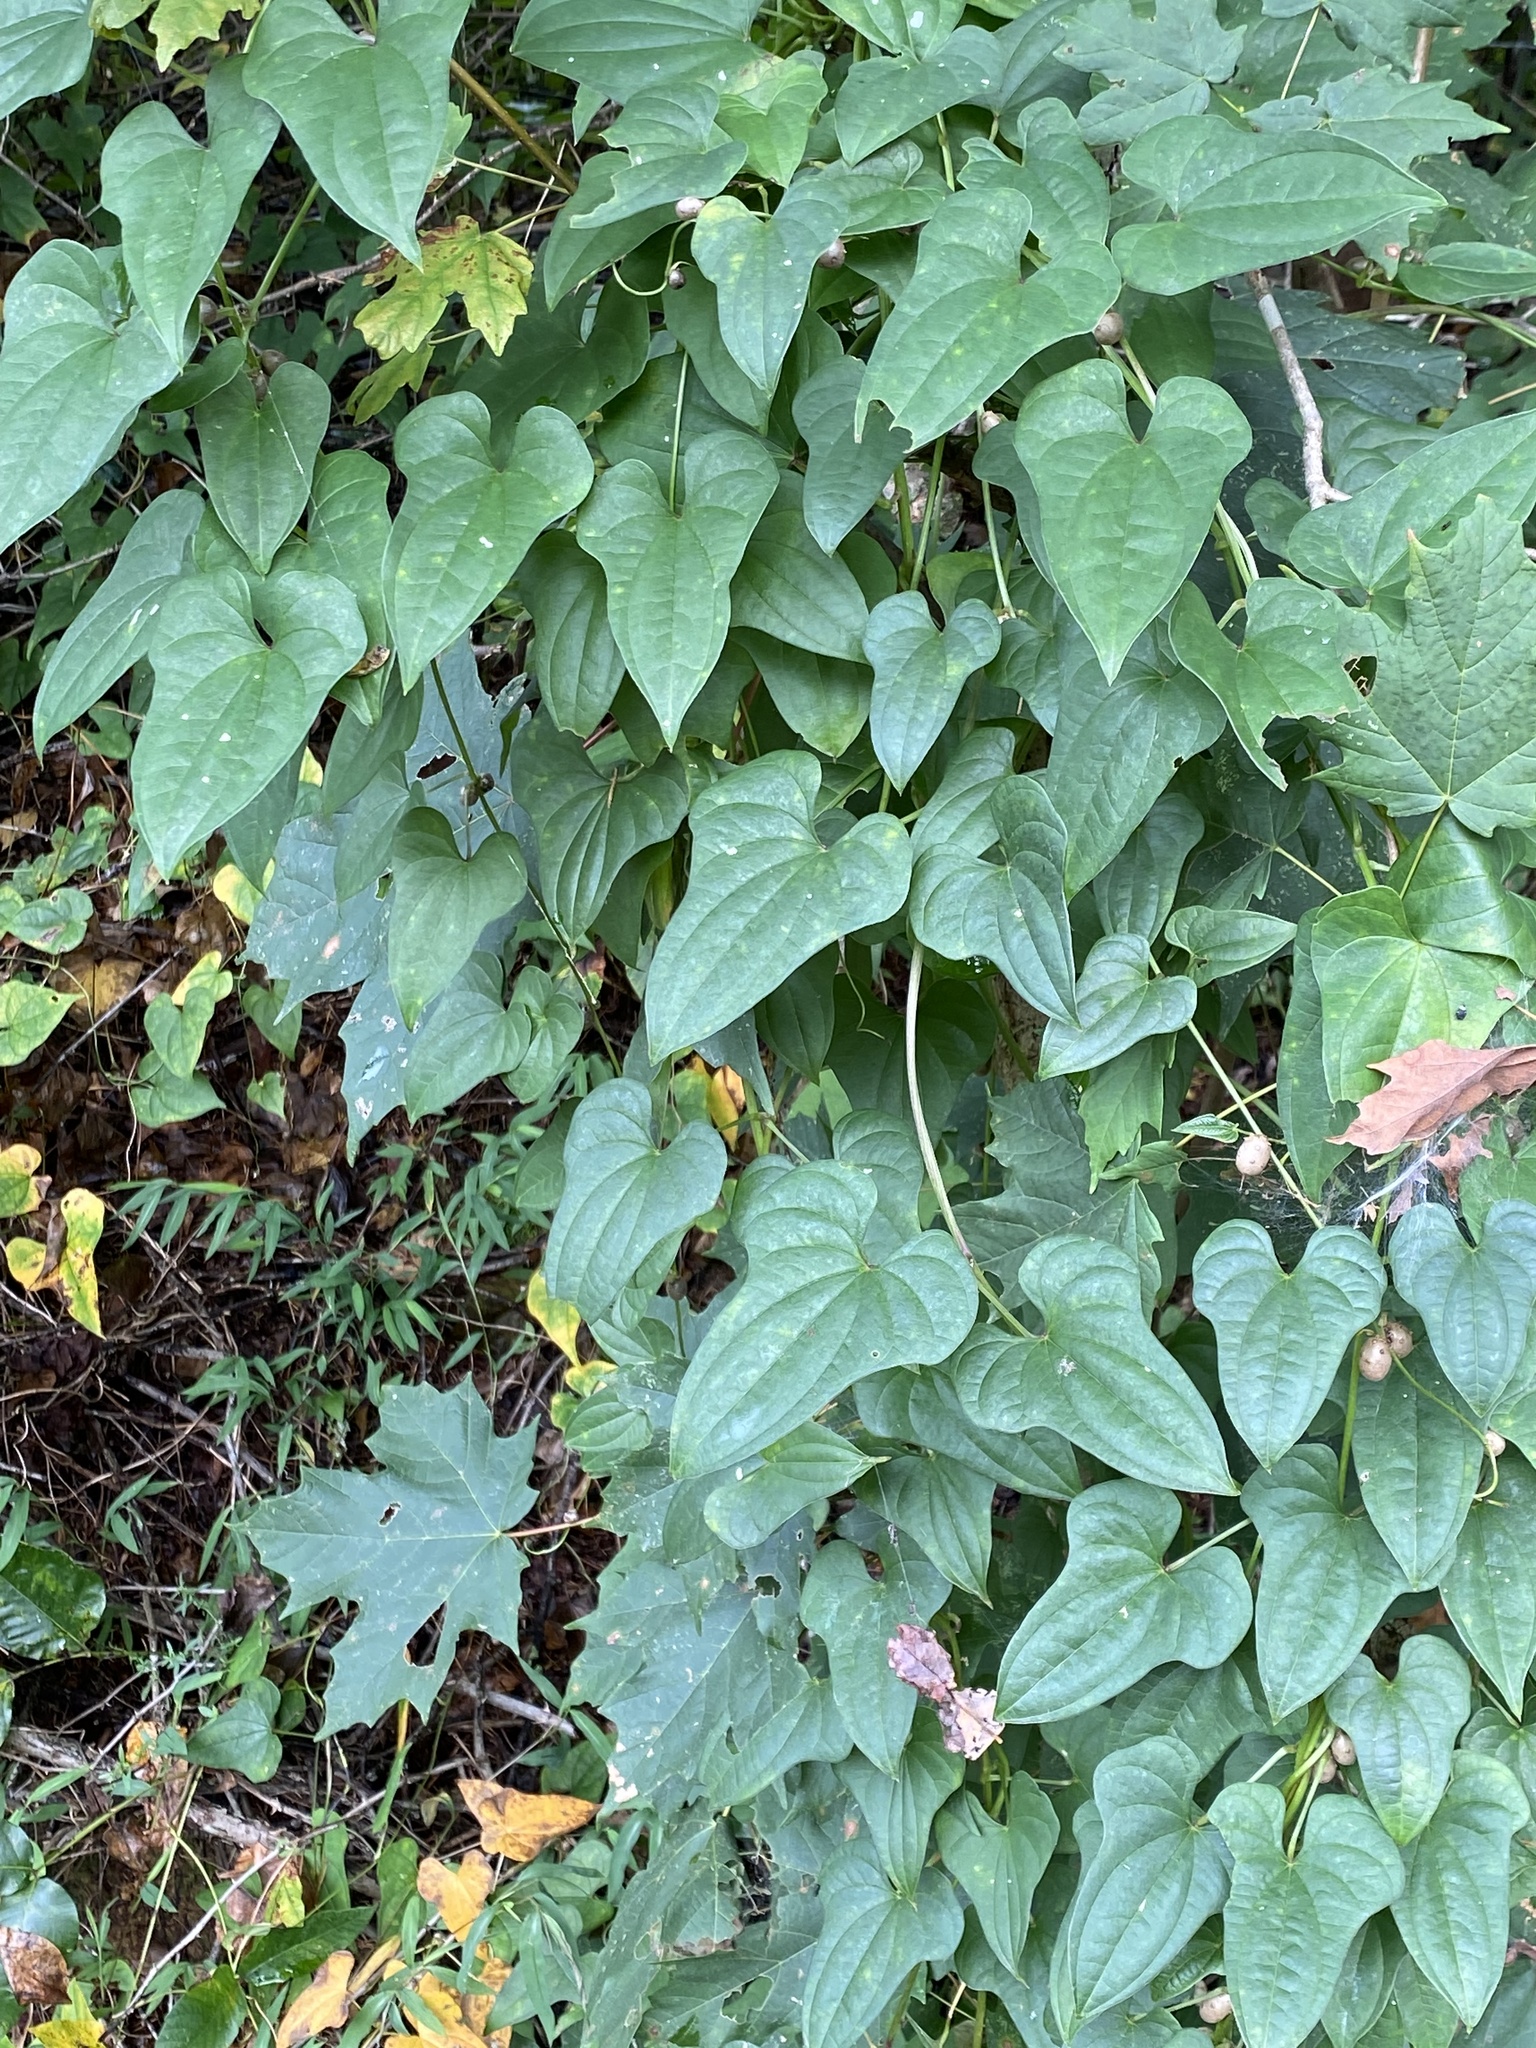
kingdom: Plantae
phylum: Tracheophyta
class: Liliopsida
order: Dioscoreales
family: Dioscoreaceae
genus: Dioscorea
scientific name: Dioscorea polystachya
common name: Chinese yam
